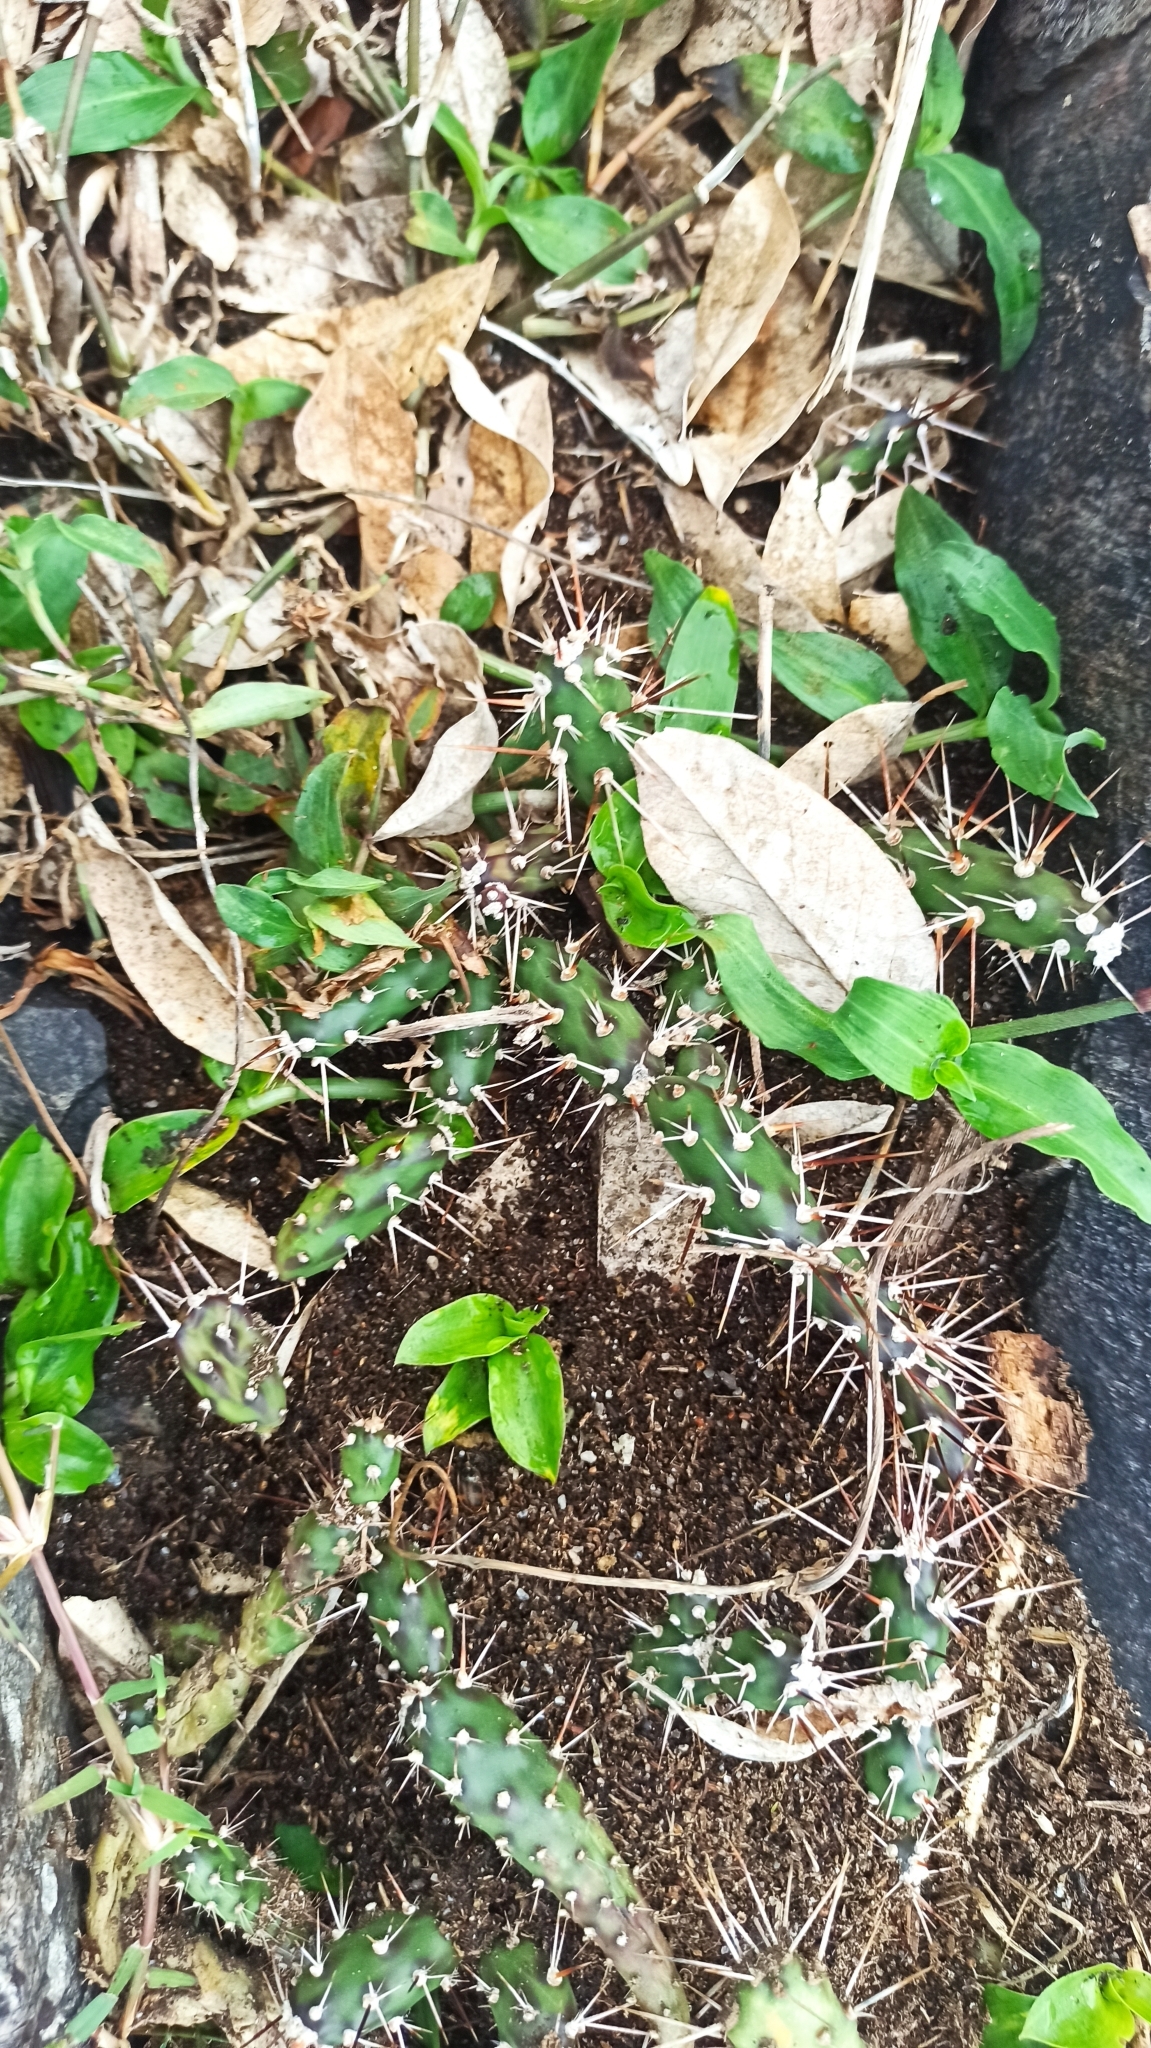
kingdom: Plantae
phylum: Tracheophyta
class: Magnoliopsida
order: Caryophyllales
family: Cactaceae
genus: Opuntia
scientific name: Opuntia aurantiaca
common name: Jointed pricklypear
